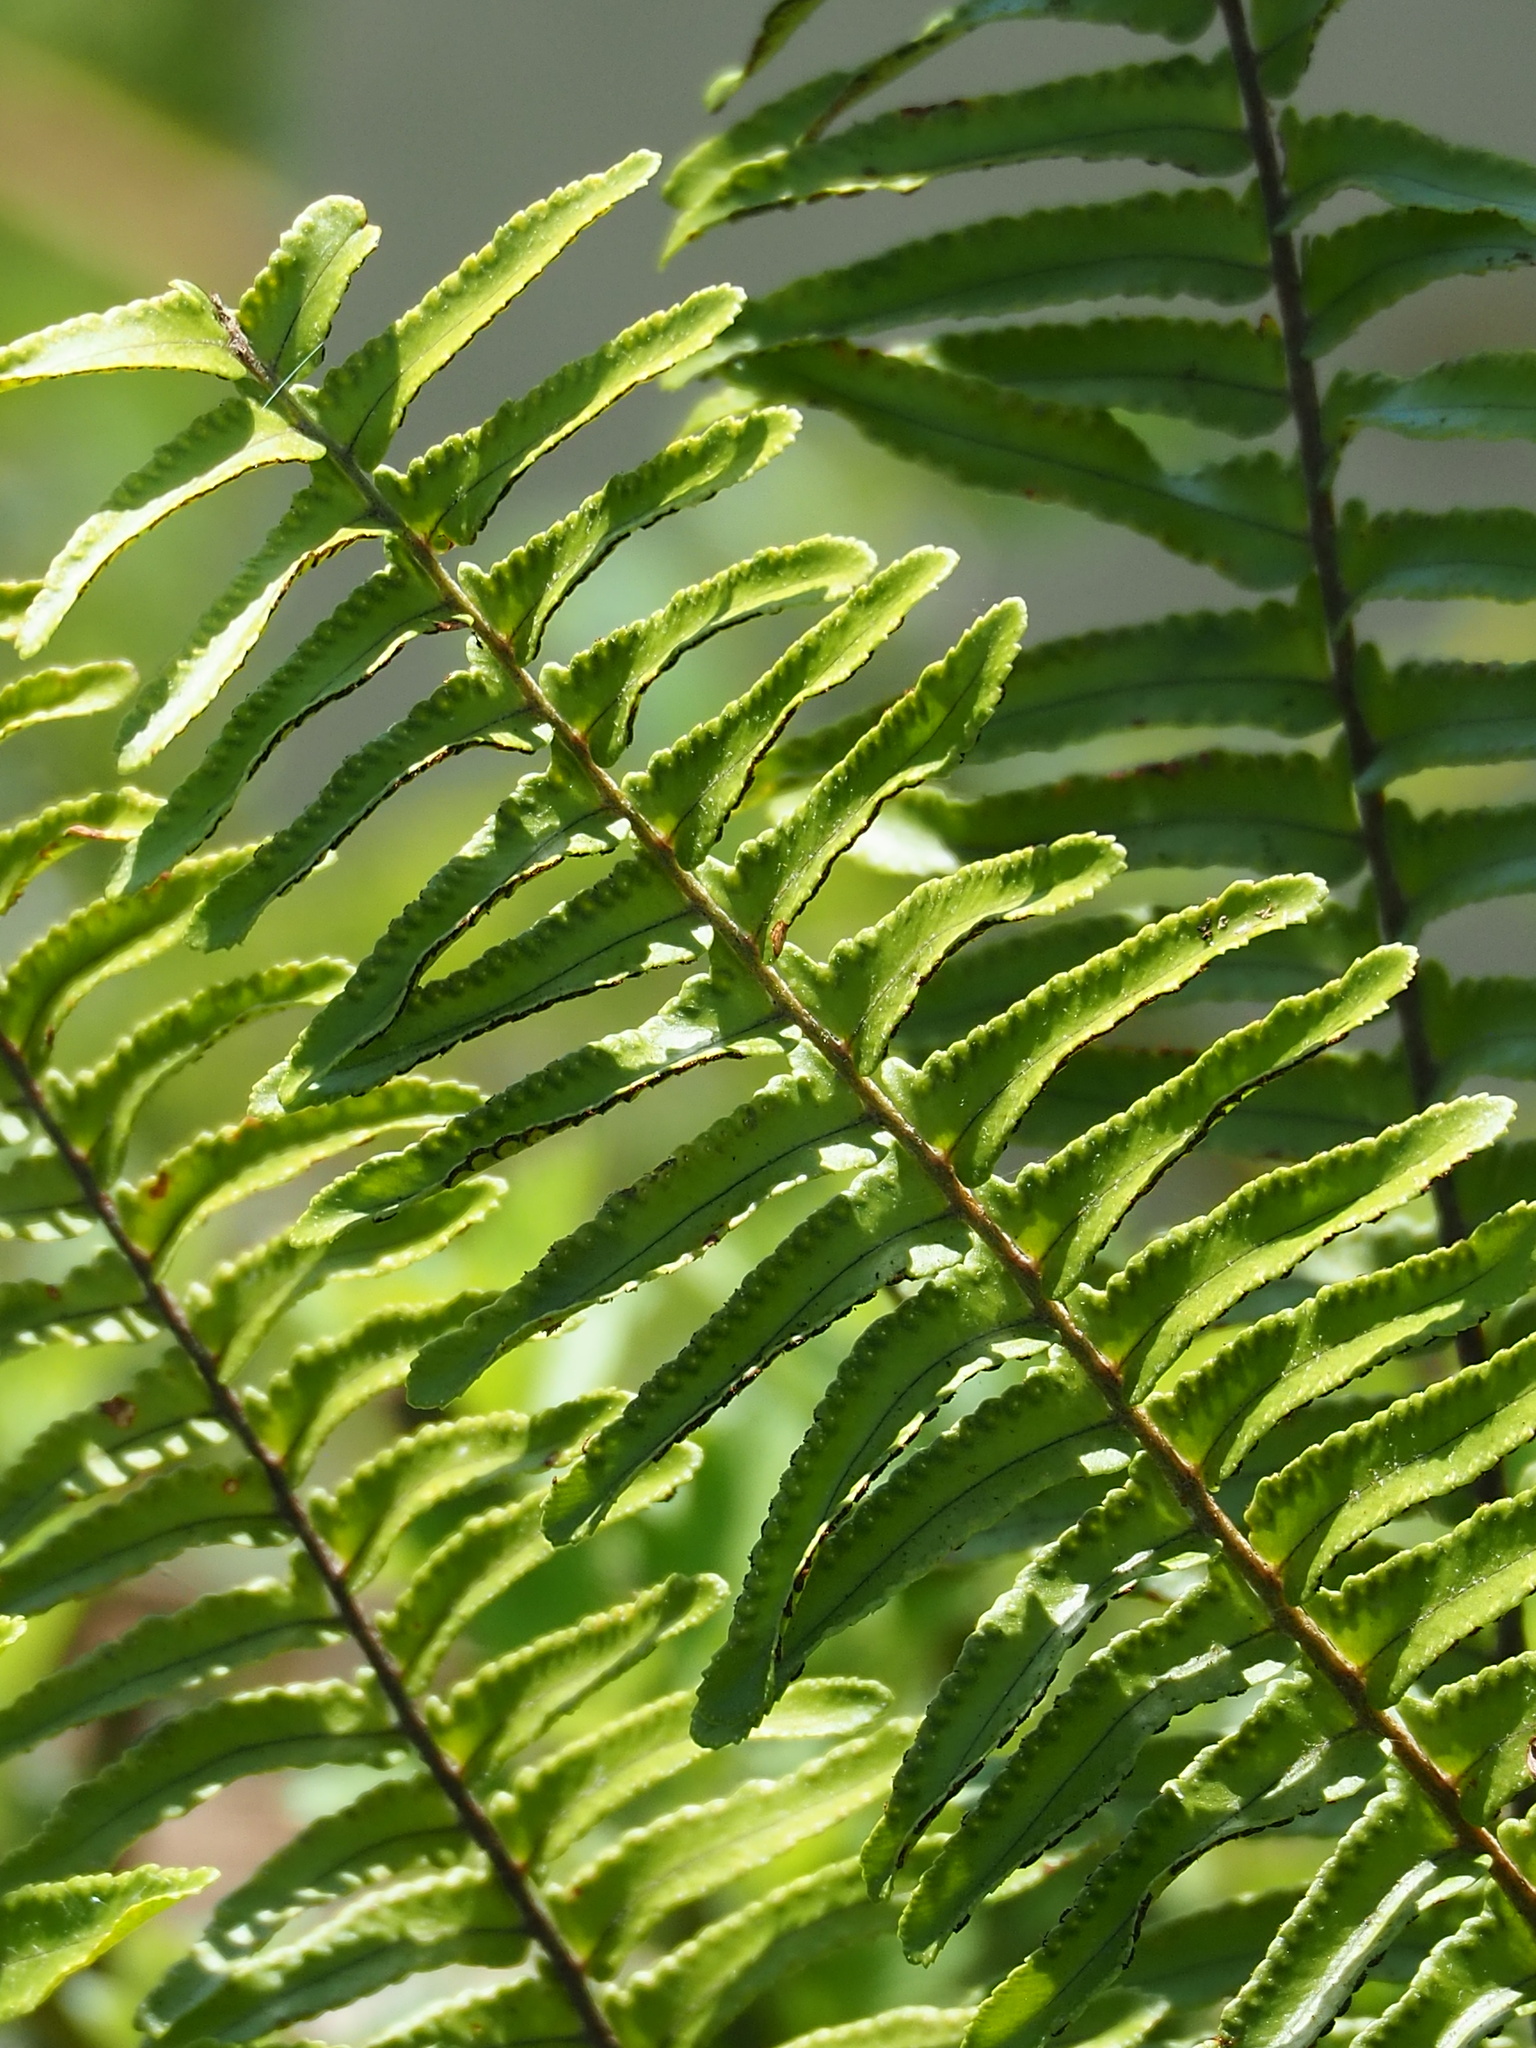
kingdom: Plantae
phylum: Tracheophyta
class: Polypodiopsida
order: Polypodiales
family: Nephrolepidaceae
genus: Nephrolepis
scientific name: Nephrolepis brownii
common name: Asian swordfern
